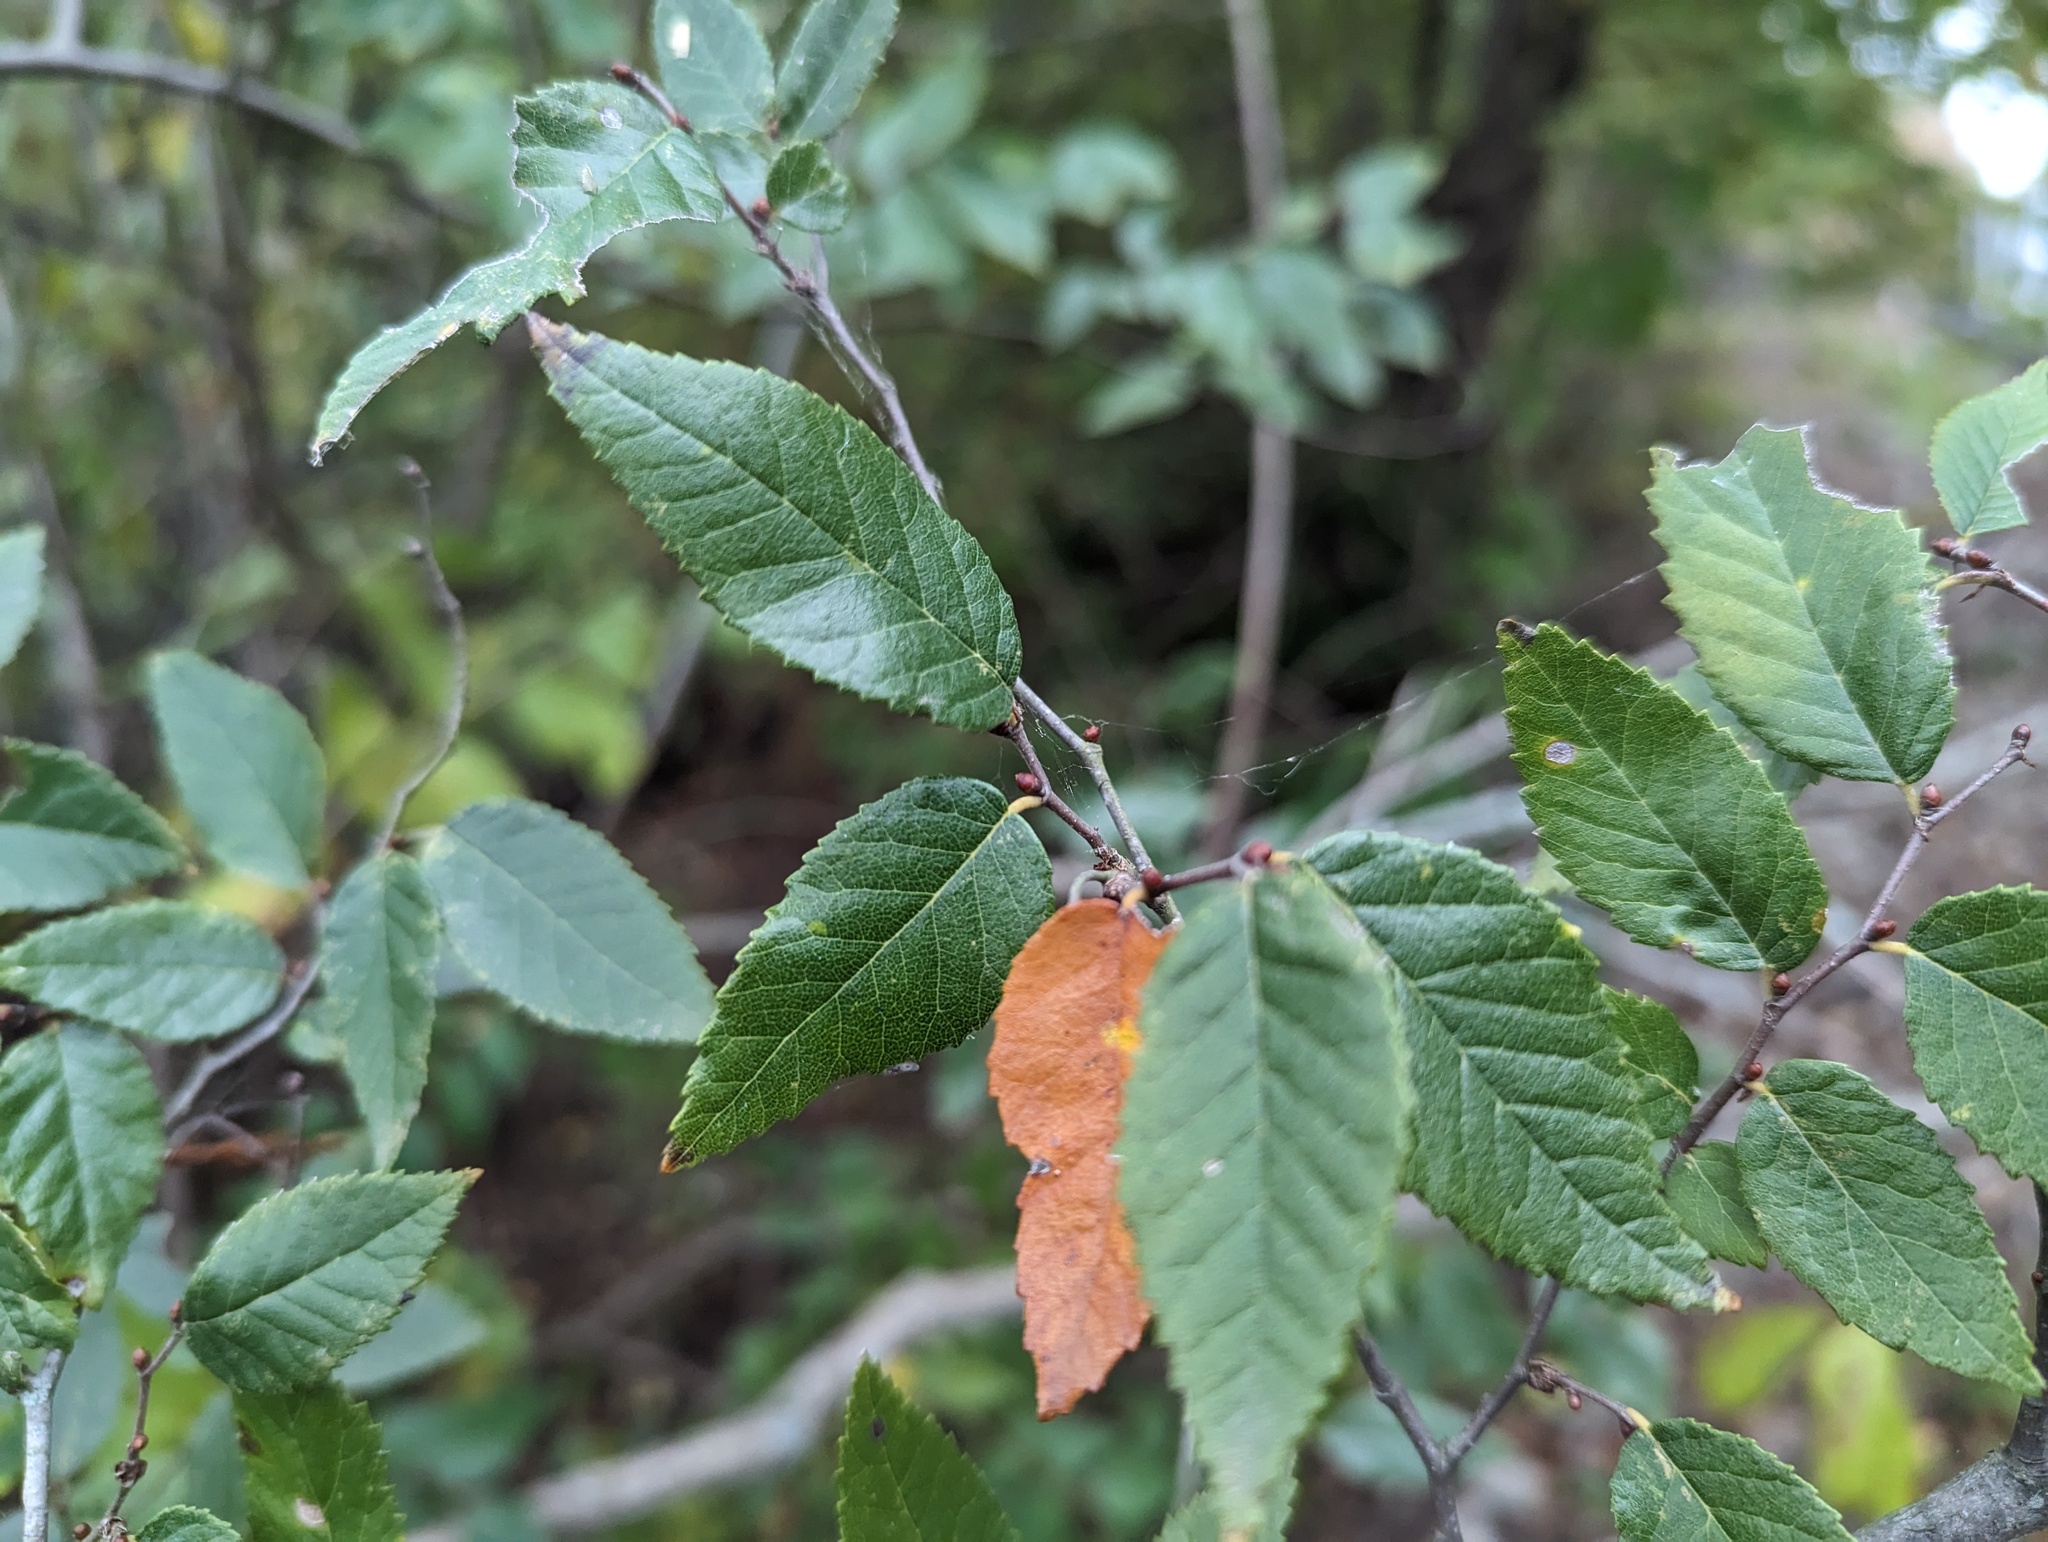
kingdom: Plantae
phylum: Tracheophyta
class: Magnoliopsida
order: Rosales
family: Ulmaceae
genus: Planera
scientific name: Planera aquatica
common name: Water-elm
